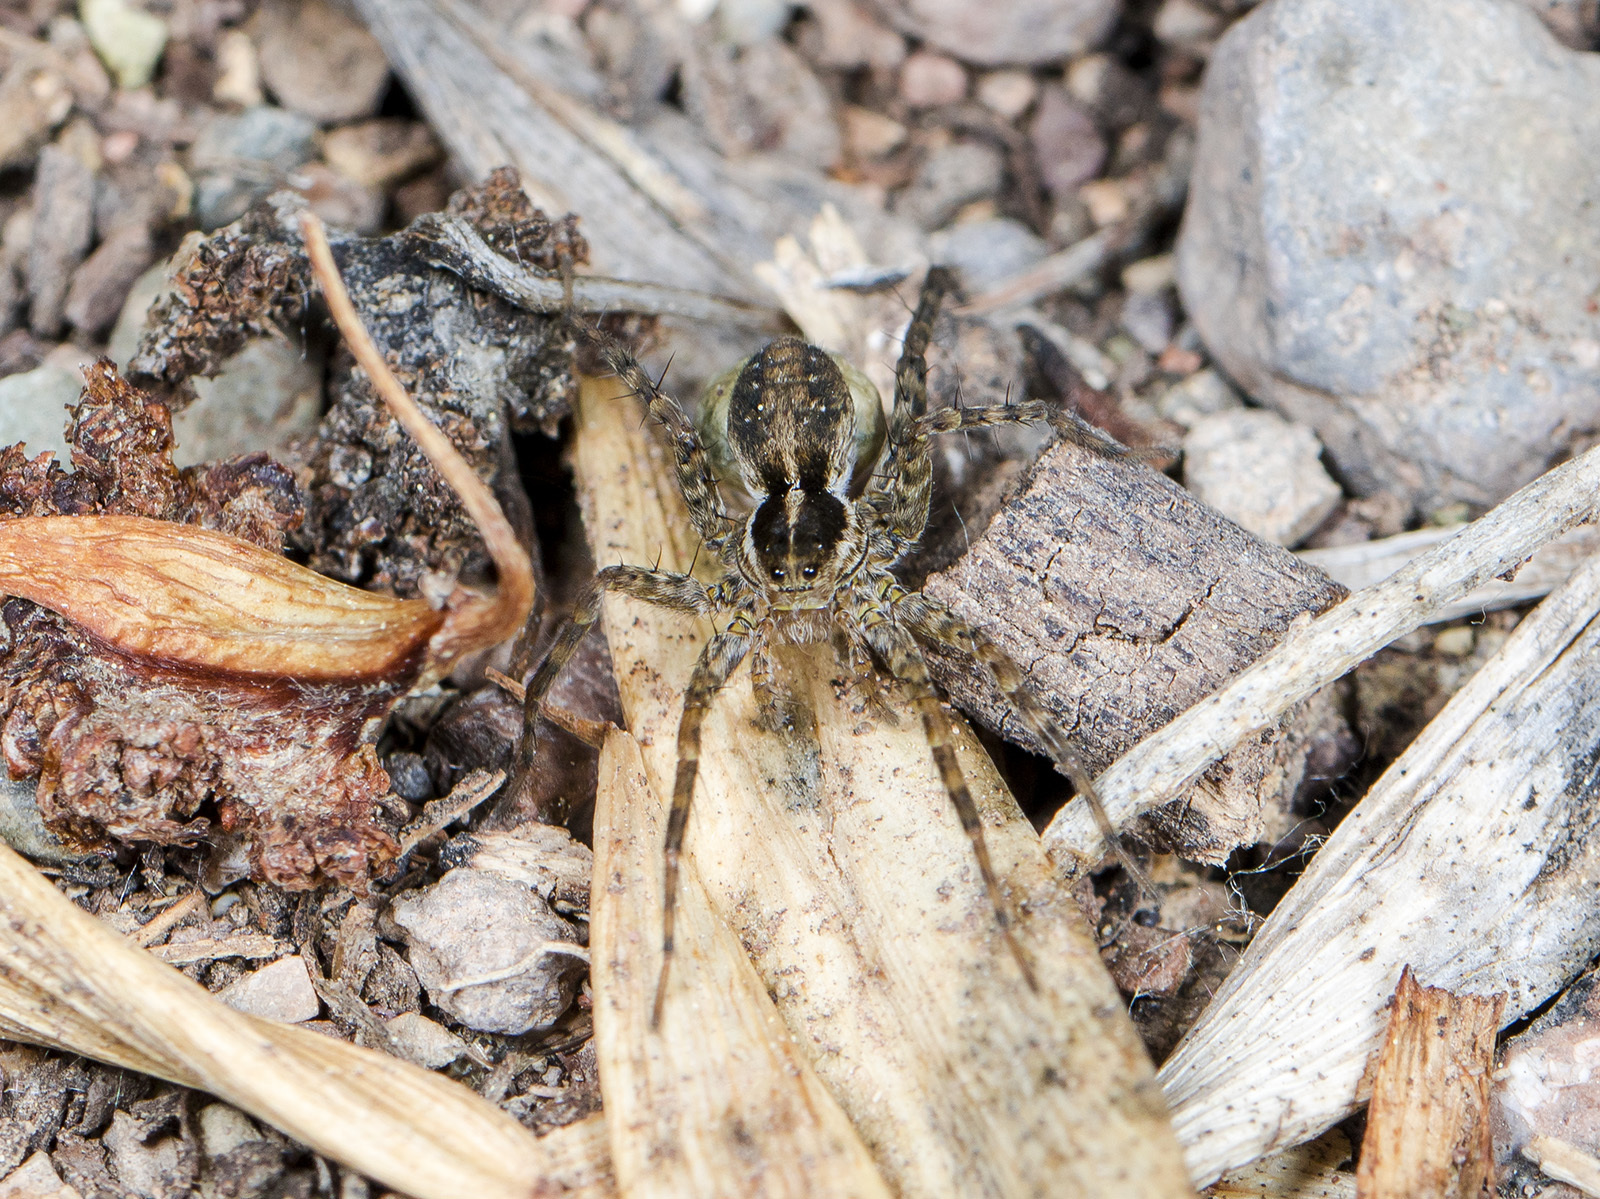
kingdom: Animalia
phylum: Arthropoda
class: Arachnida
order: Araneae
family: Lycosidae
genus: Pardosa
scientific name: Pardosa zonsteini
